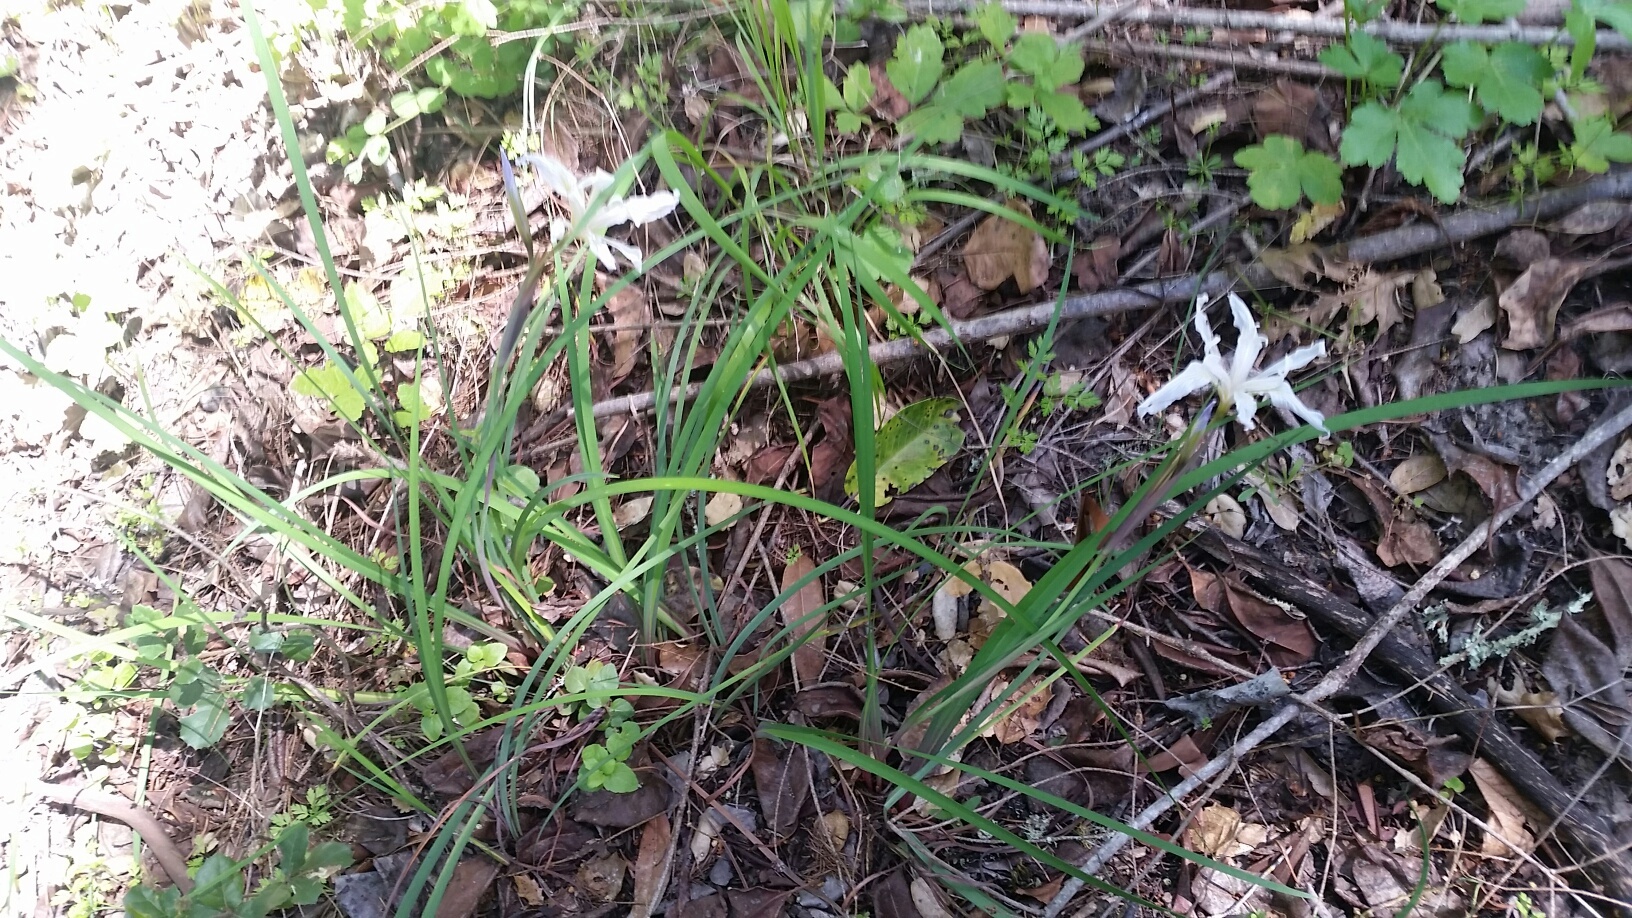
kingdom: Plantae
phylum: Tracheophyta
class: Liliopsida
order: Asparagales
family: Iridaceae
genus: Iris
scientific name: Iris macrosiphon
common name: Ground iris
